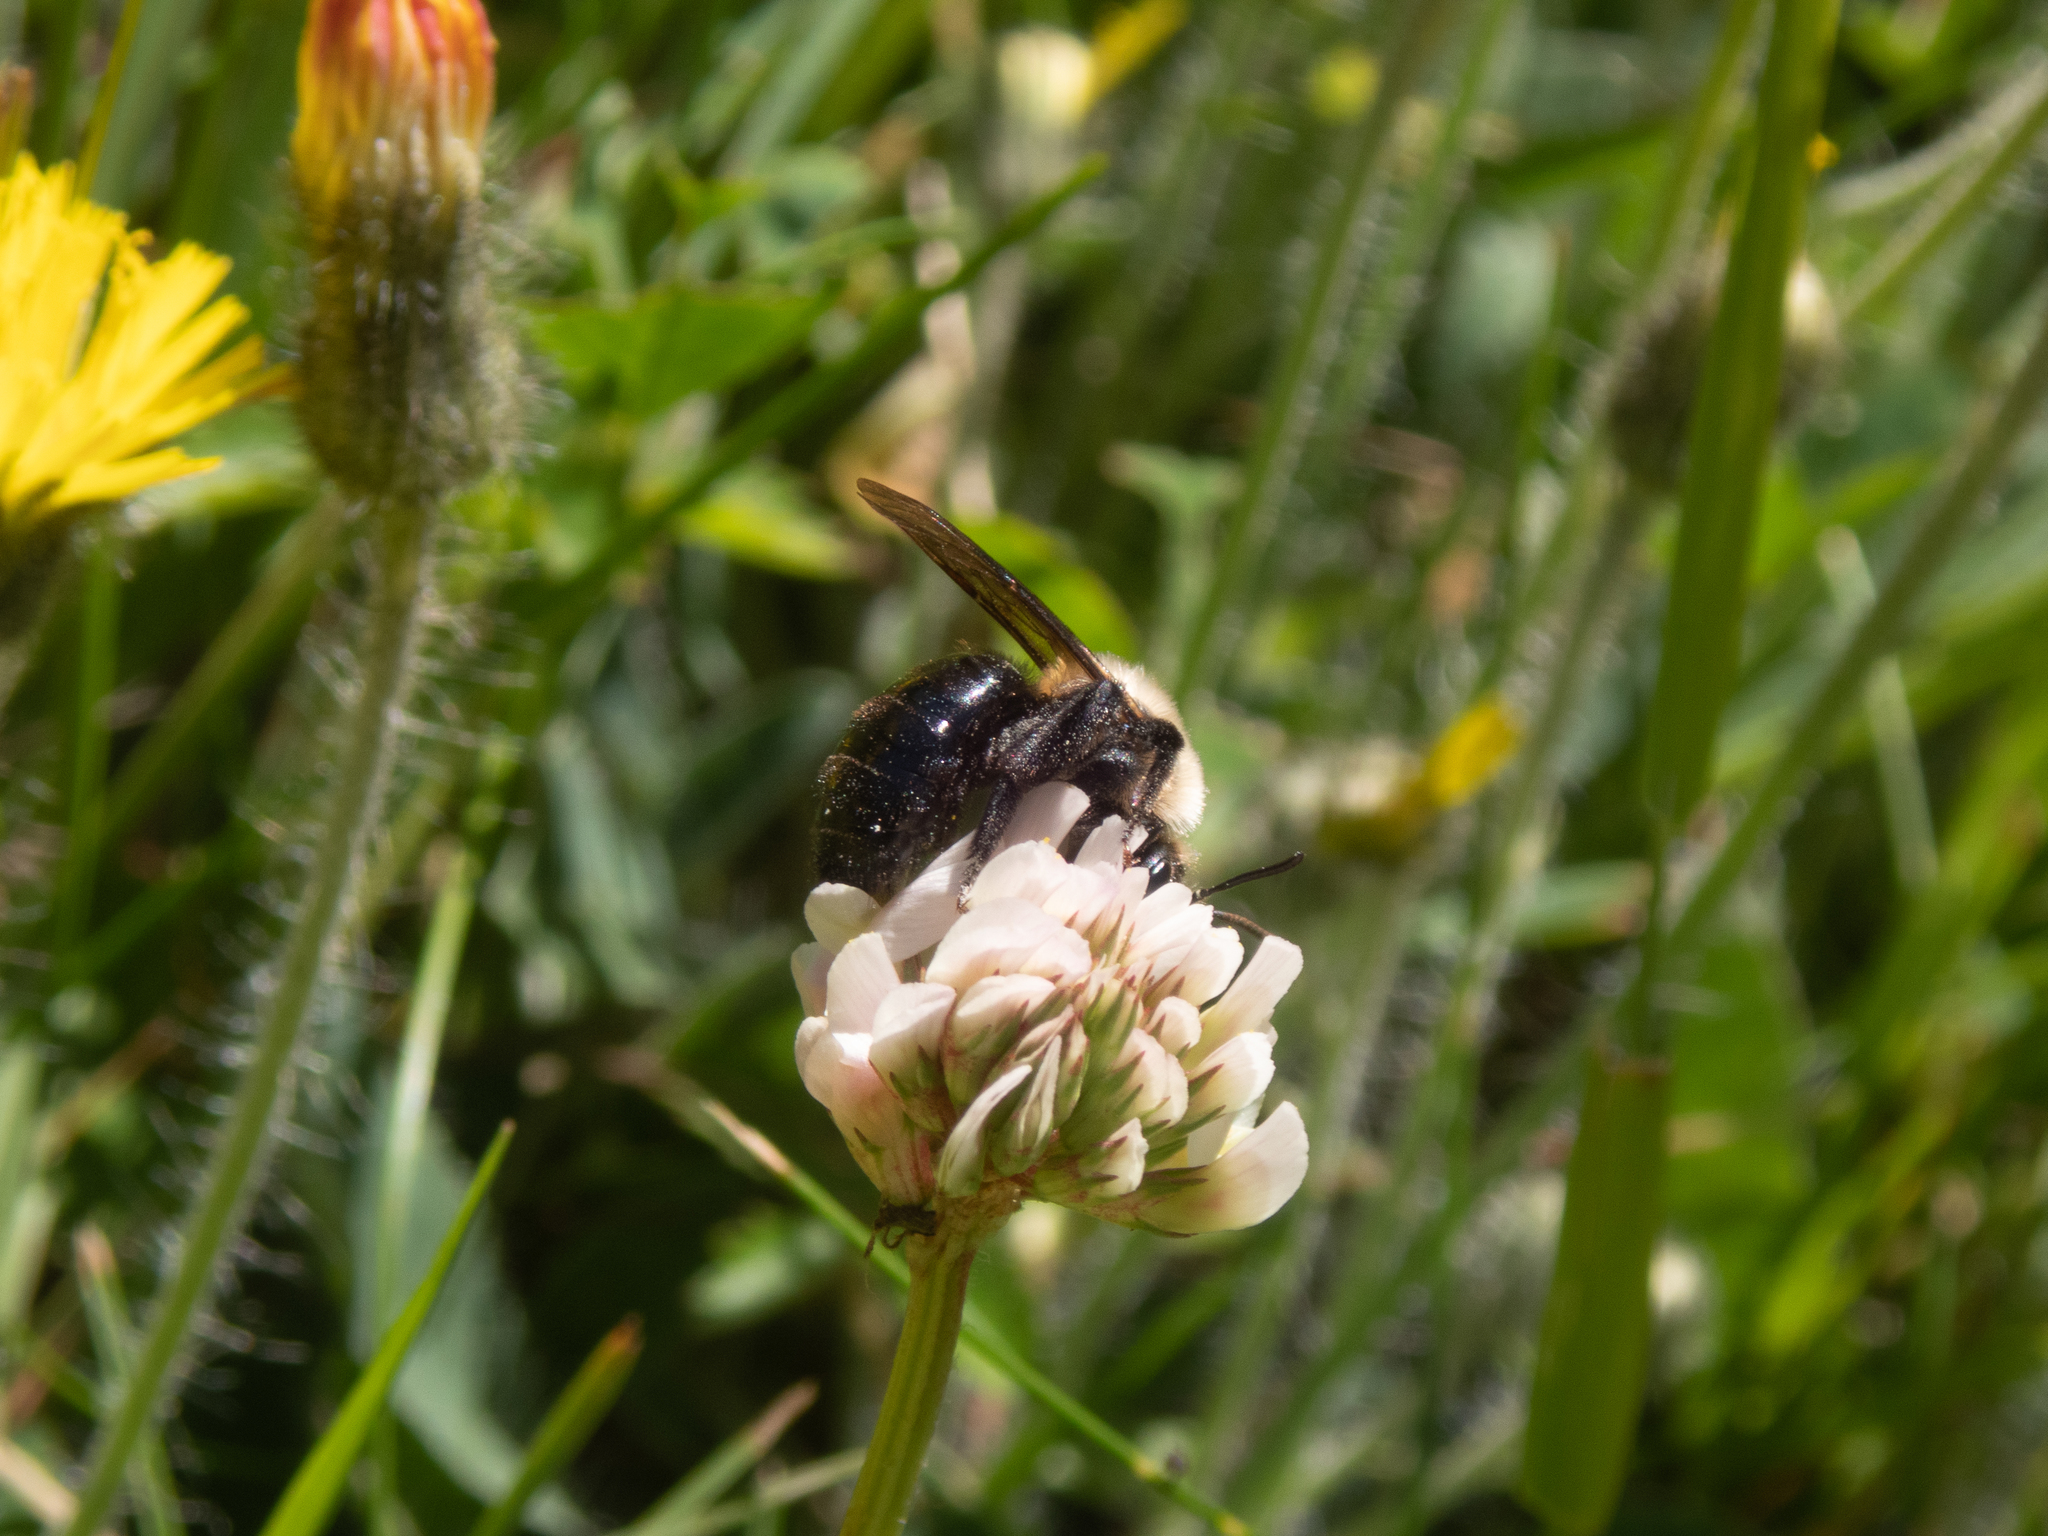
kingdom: Animalia
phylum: Arthropoda
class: Insecta
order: Hymenoptera
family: Apidae
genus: Xylocopa
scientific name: Xylocopa virginica
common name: Carpenter bee
